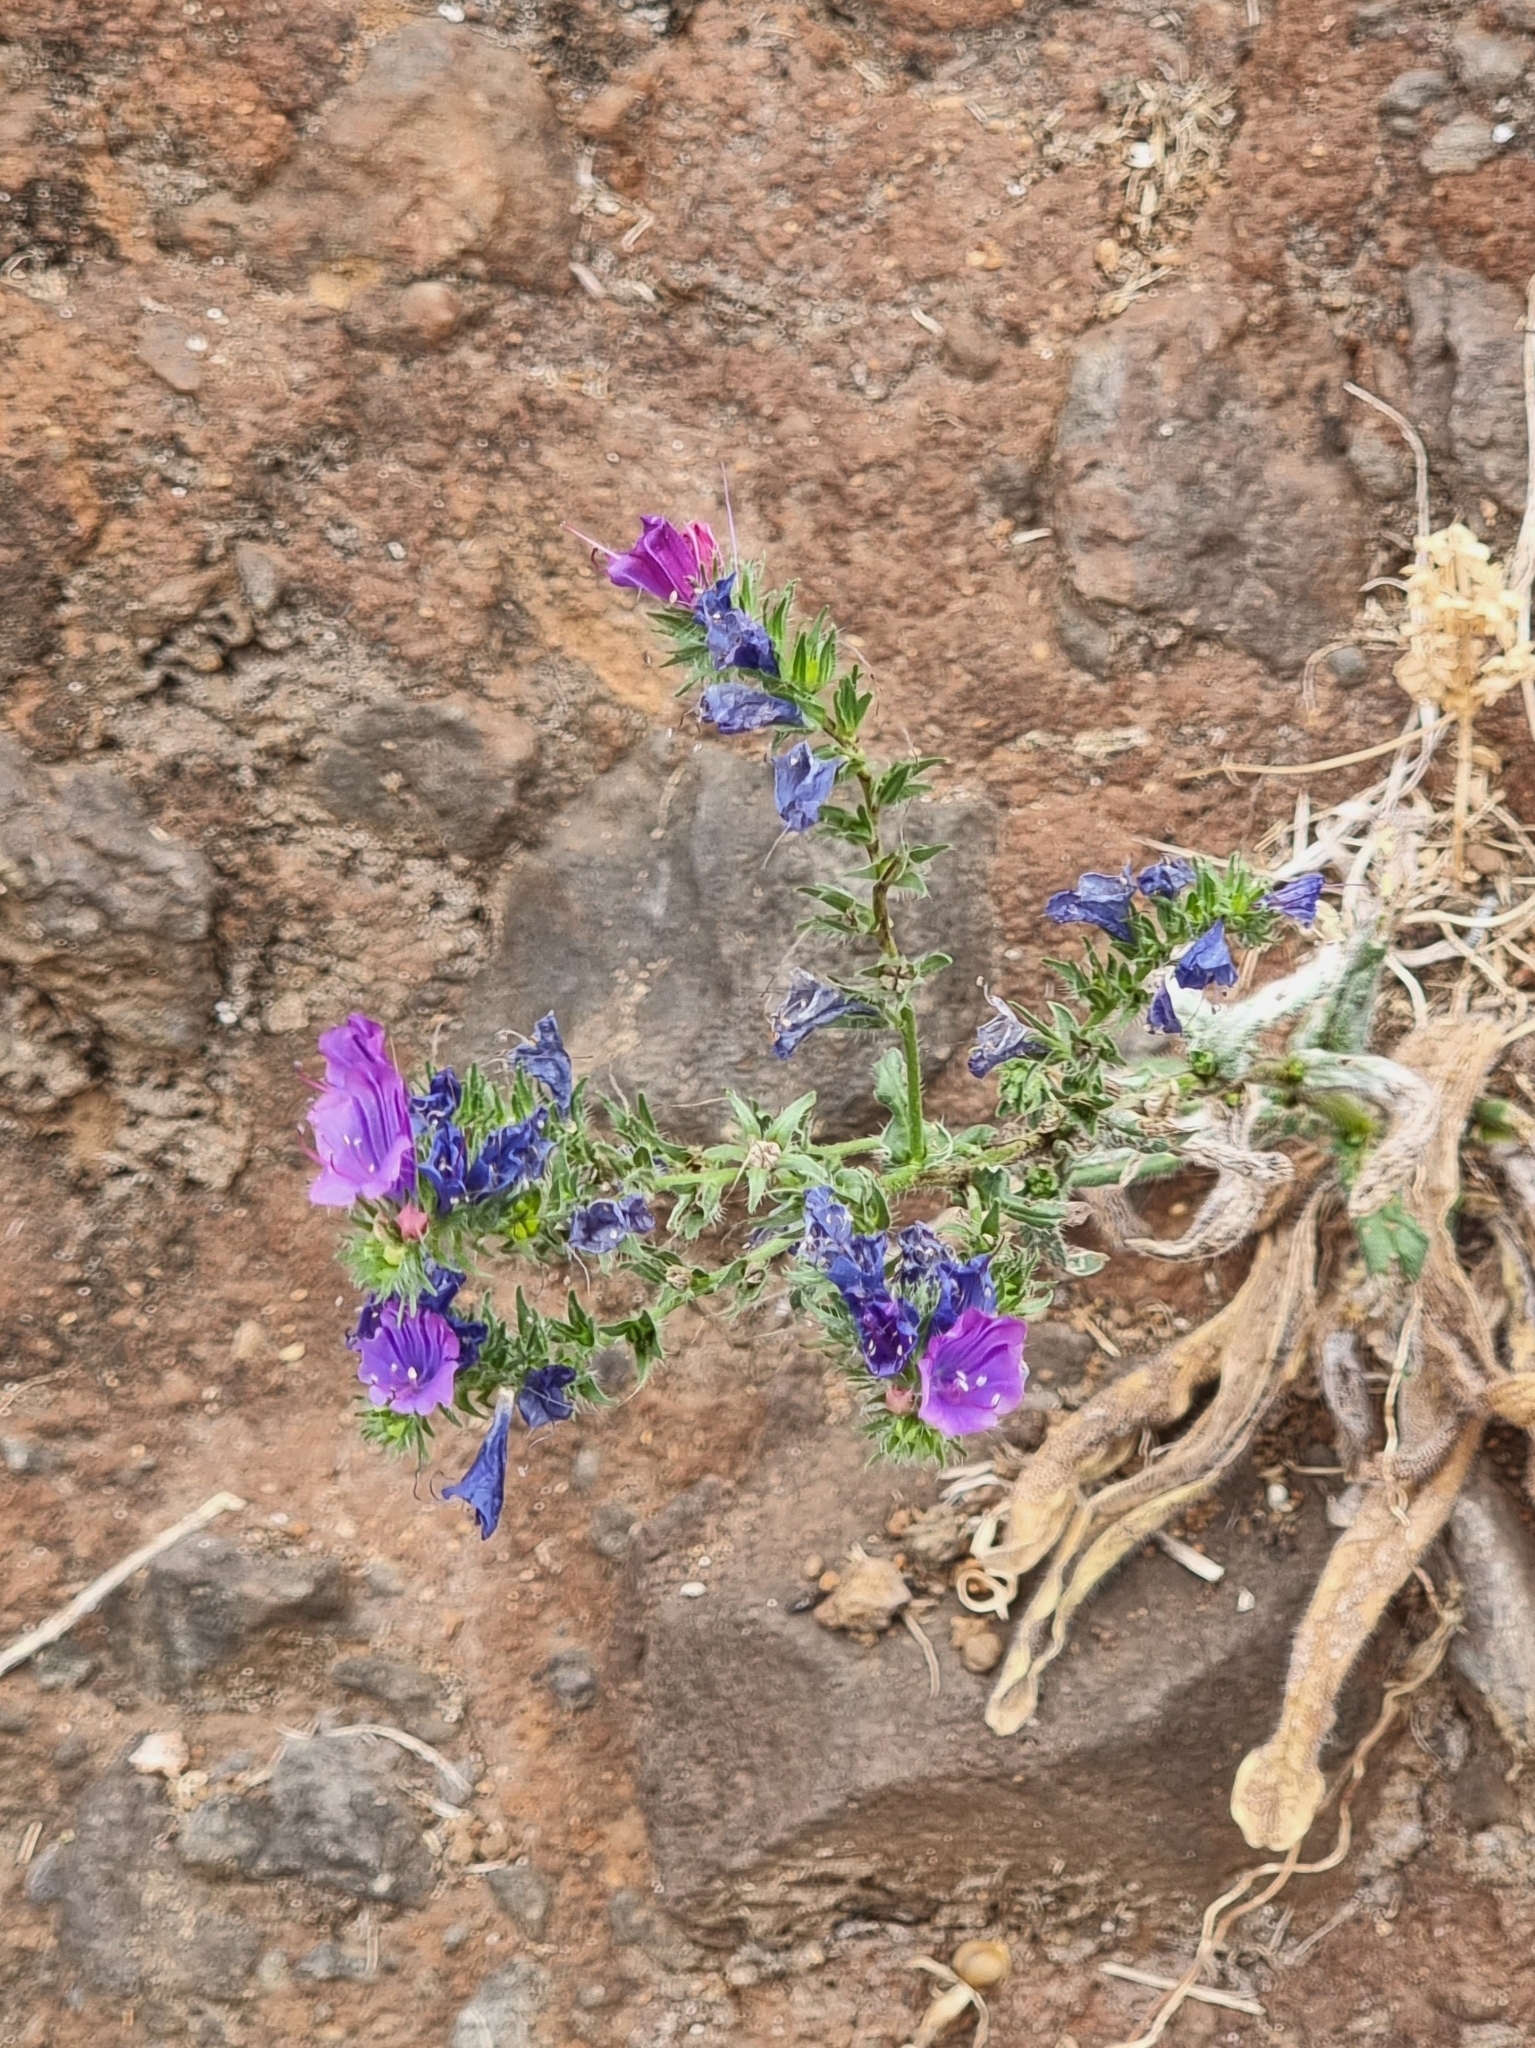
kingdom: Plantae
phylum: Tracheophyta
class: Magnoliopsida
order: Boraginales
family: Boraginaceae
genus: Echium
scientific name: Echium plantagineum
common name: Purple viper's-bugloss
